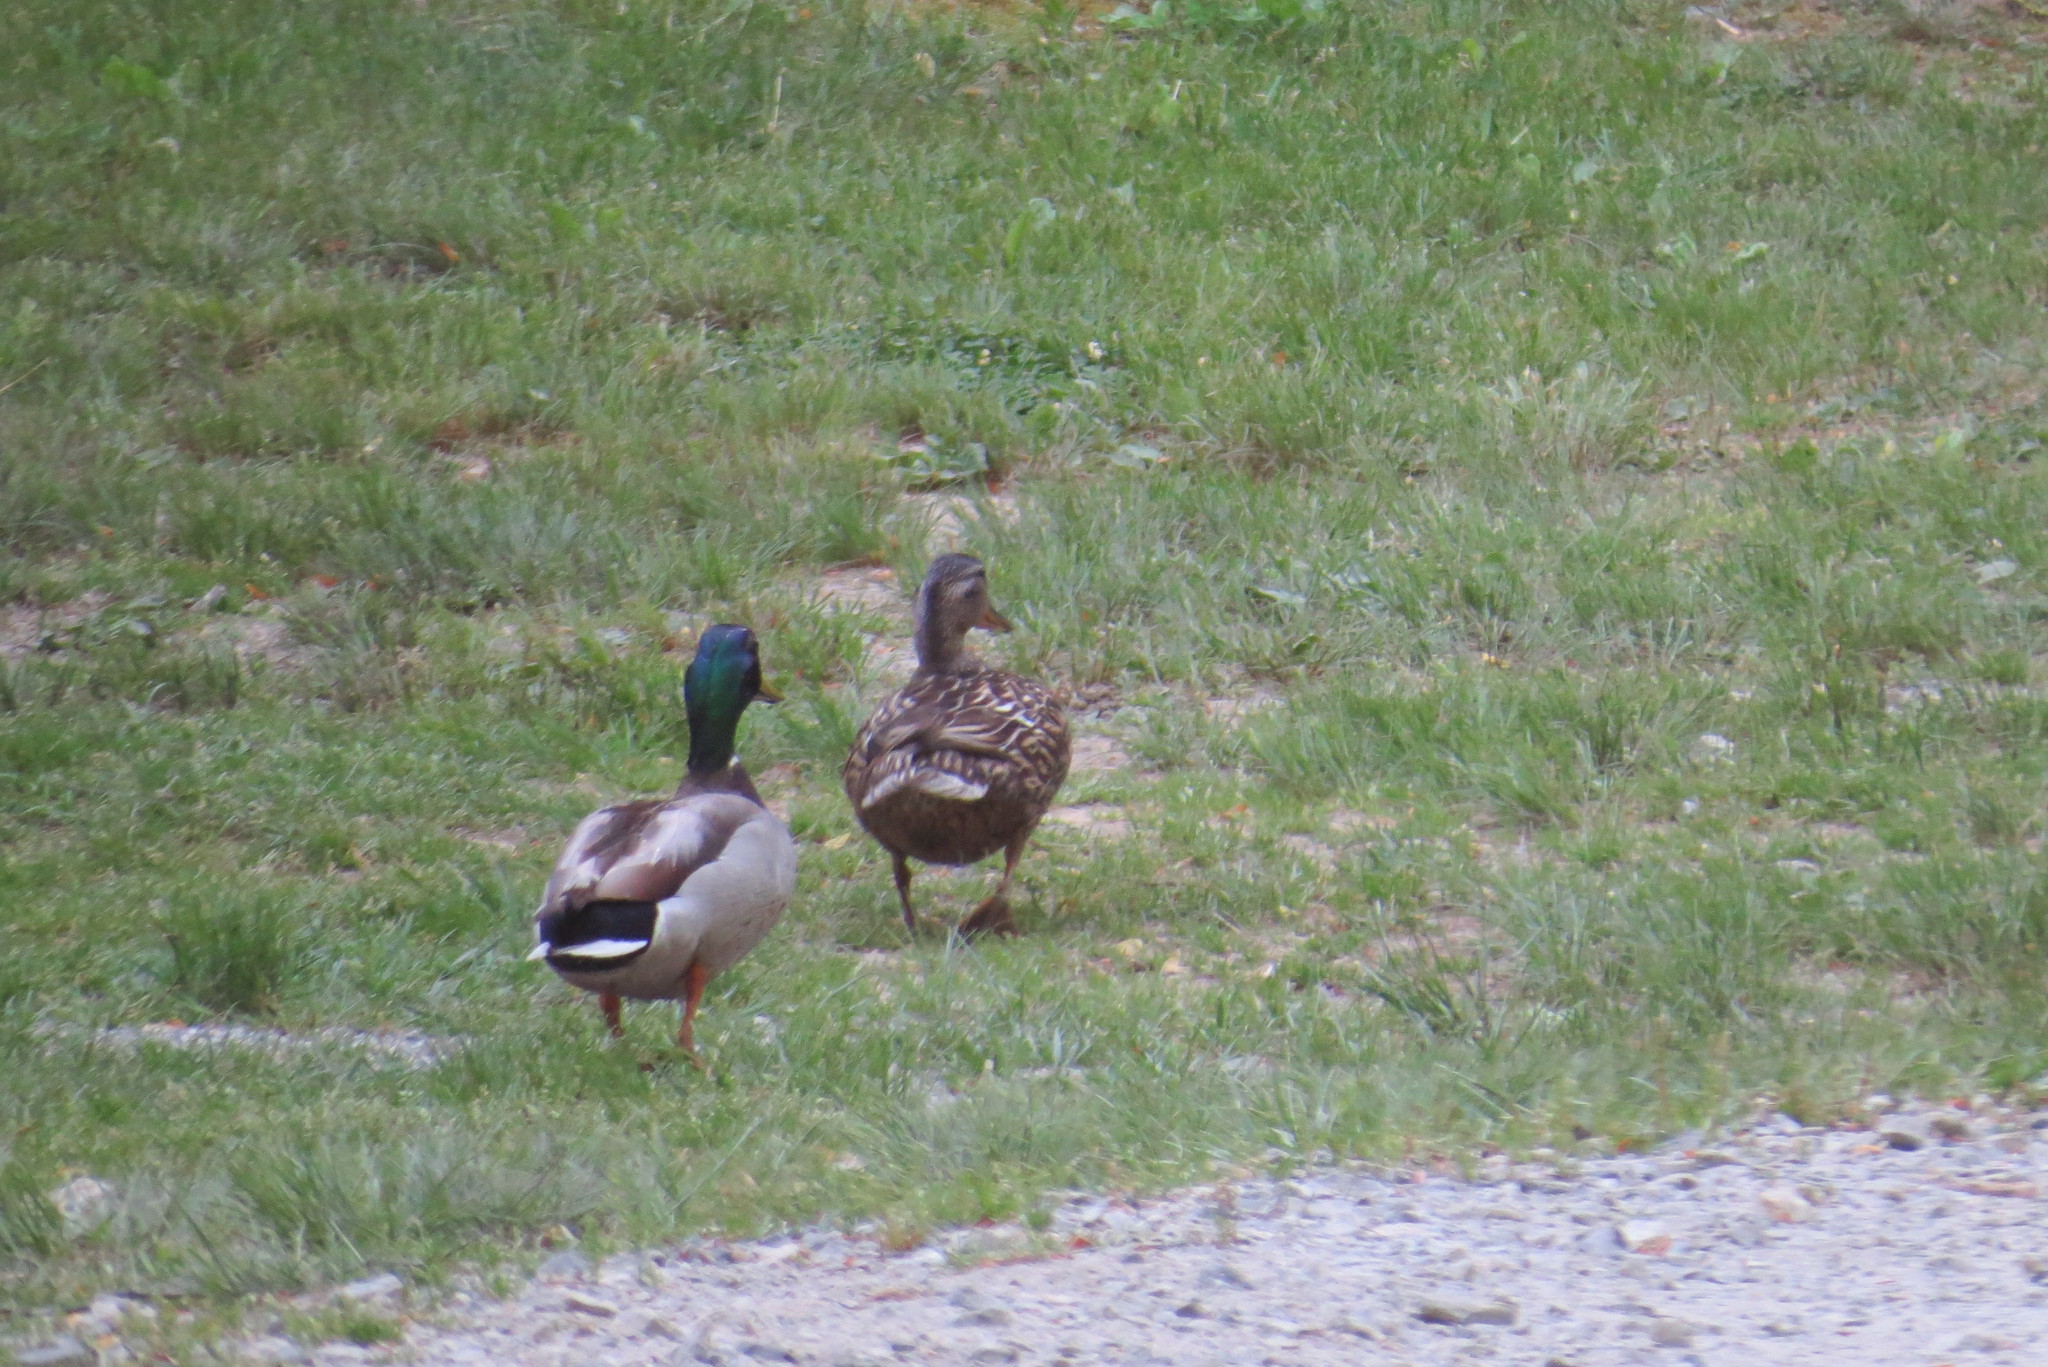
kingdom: Animalia
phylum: Chordata
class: Aves
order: Anseriformes
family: Anatidae
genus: Anas
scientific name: Anas platyrhynchos
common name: Mallard
